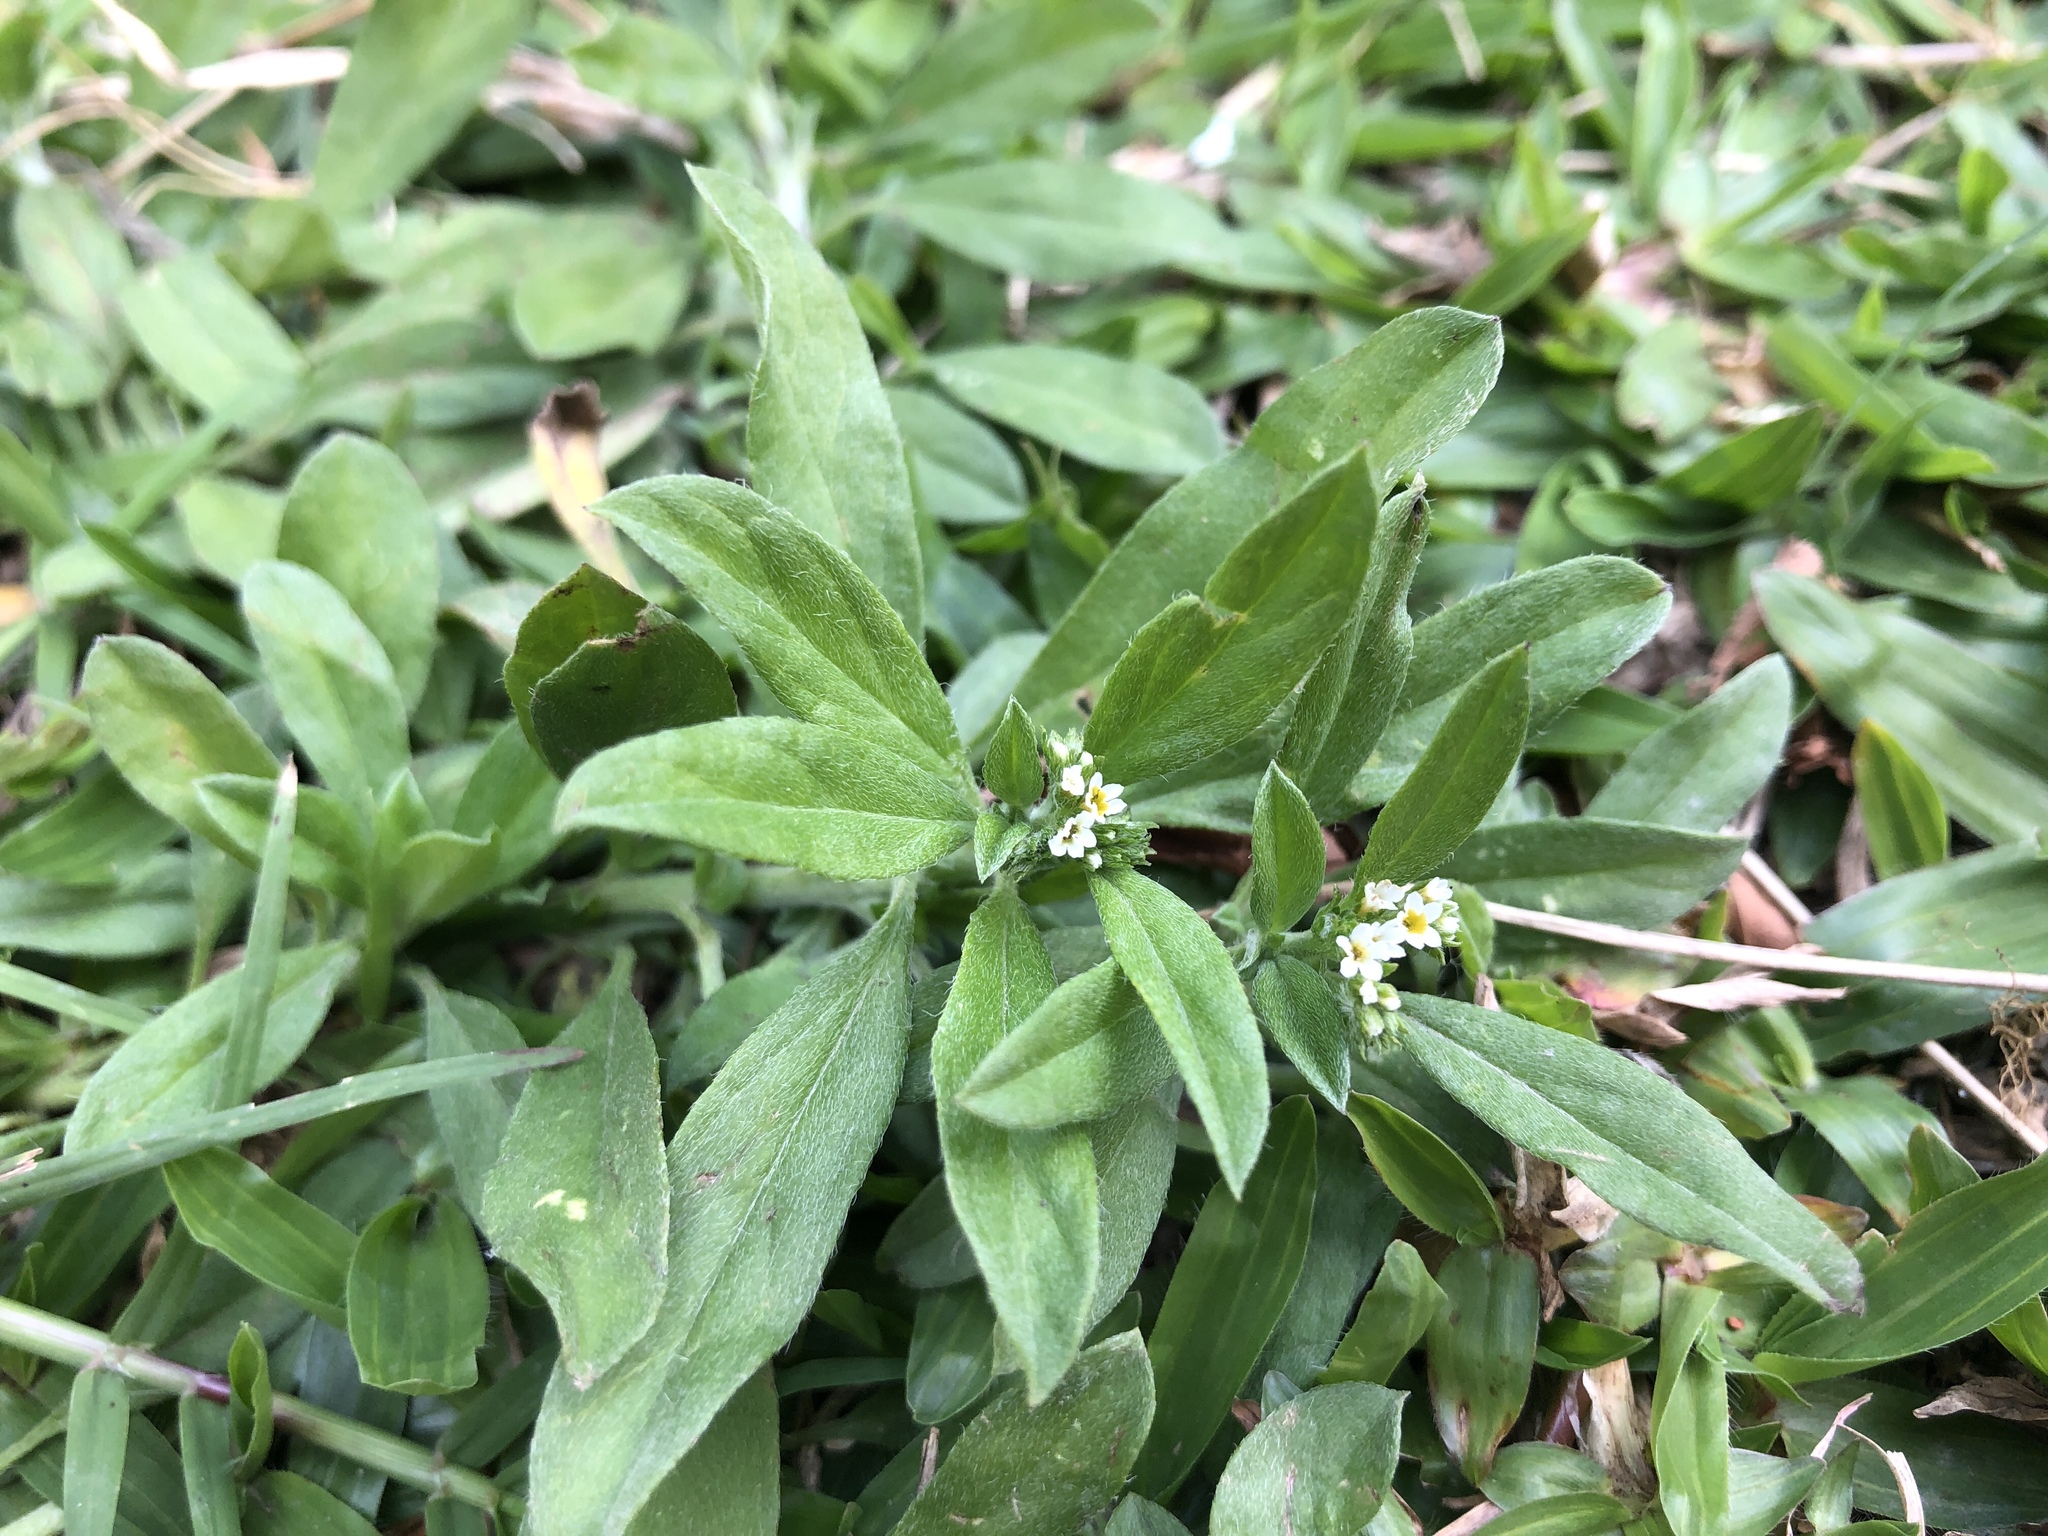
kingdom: Plantae
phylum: Tracheophyta
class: Magnoliopsida
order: Boraginales
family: Heliotropiaceae
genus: Euploca
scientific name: Euploca procumbens
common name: Fourspike heliotrope
